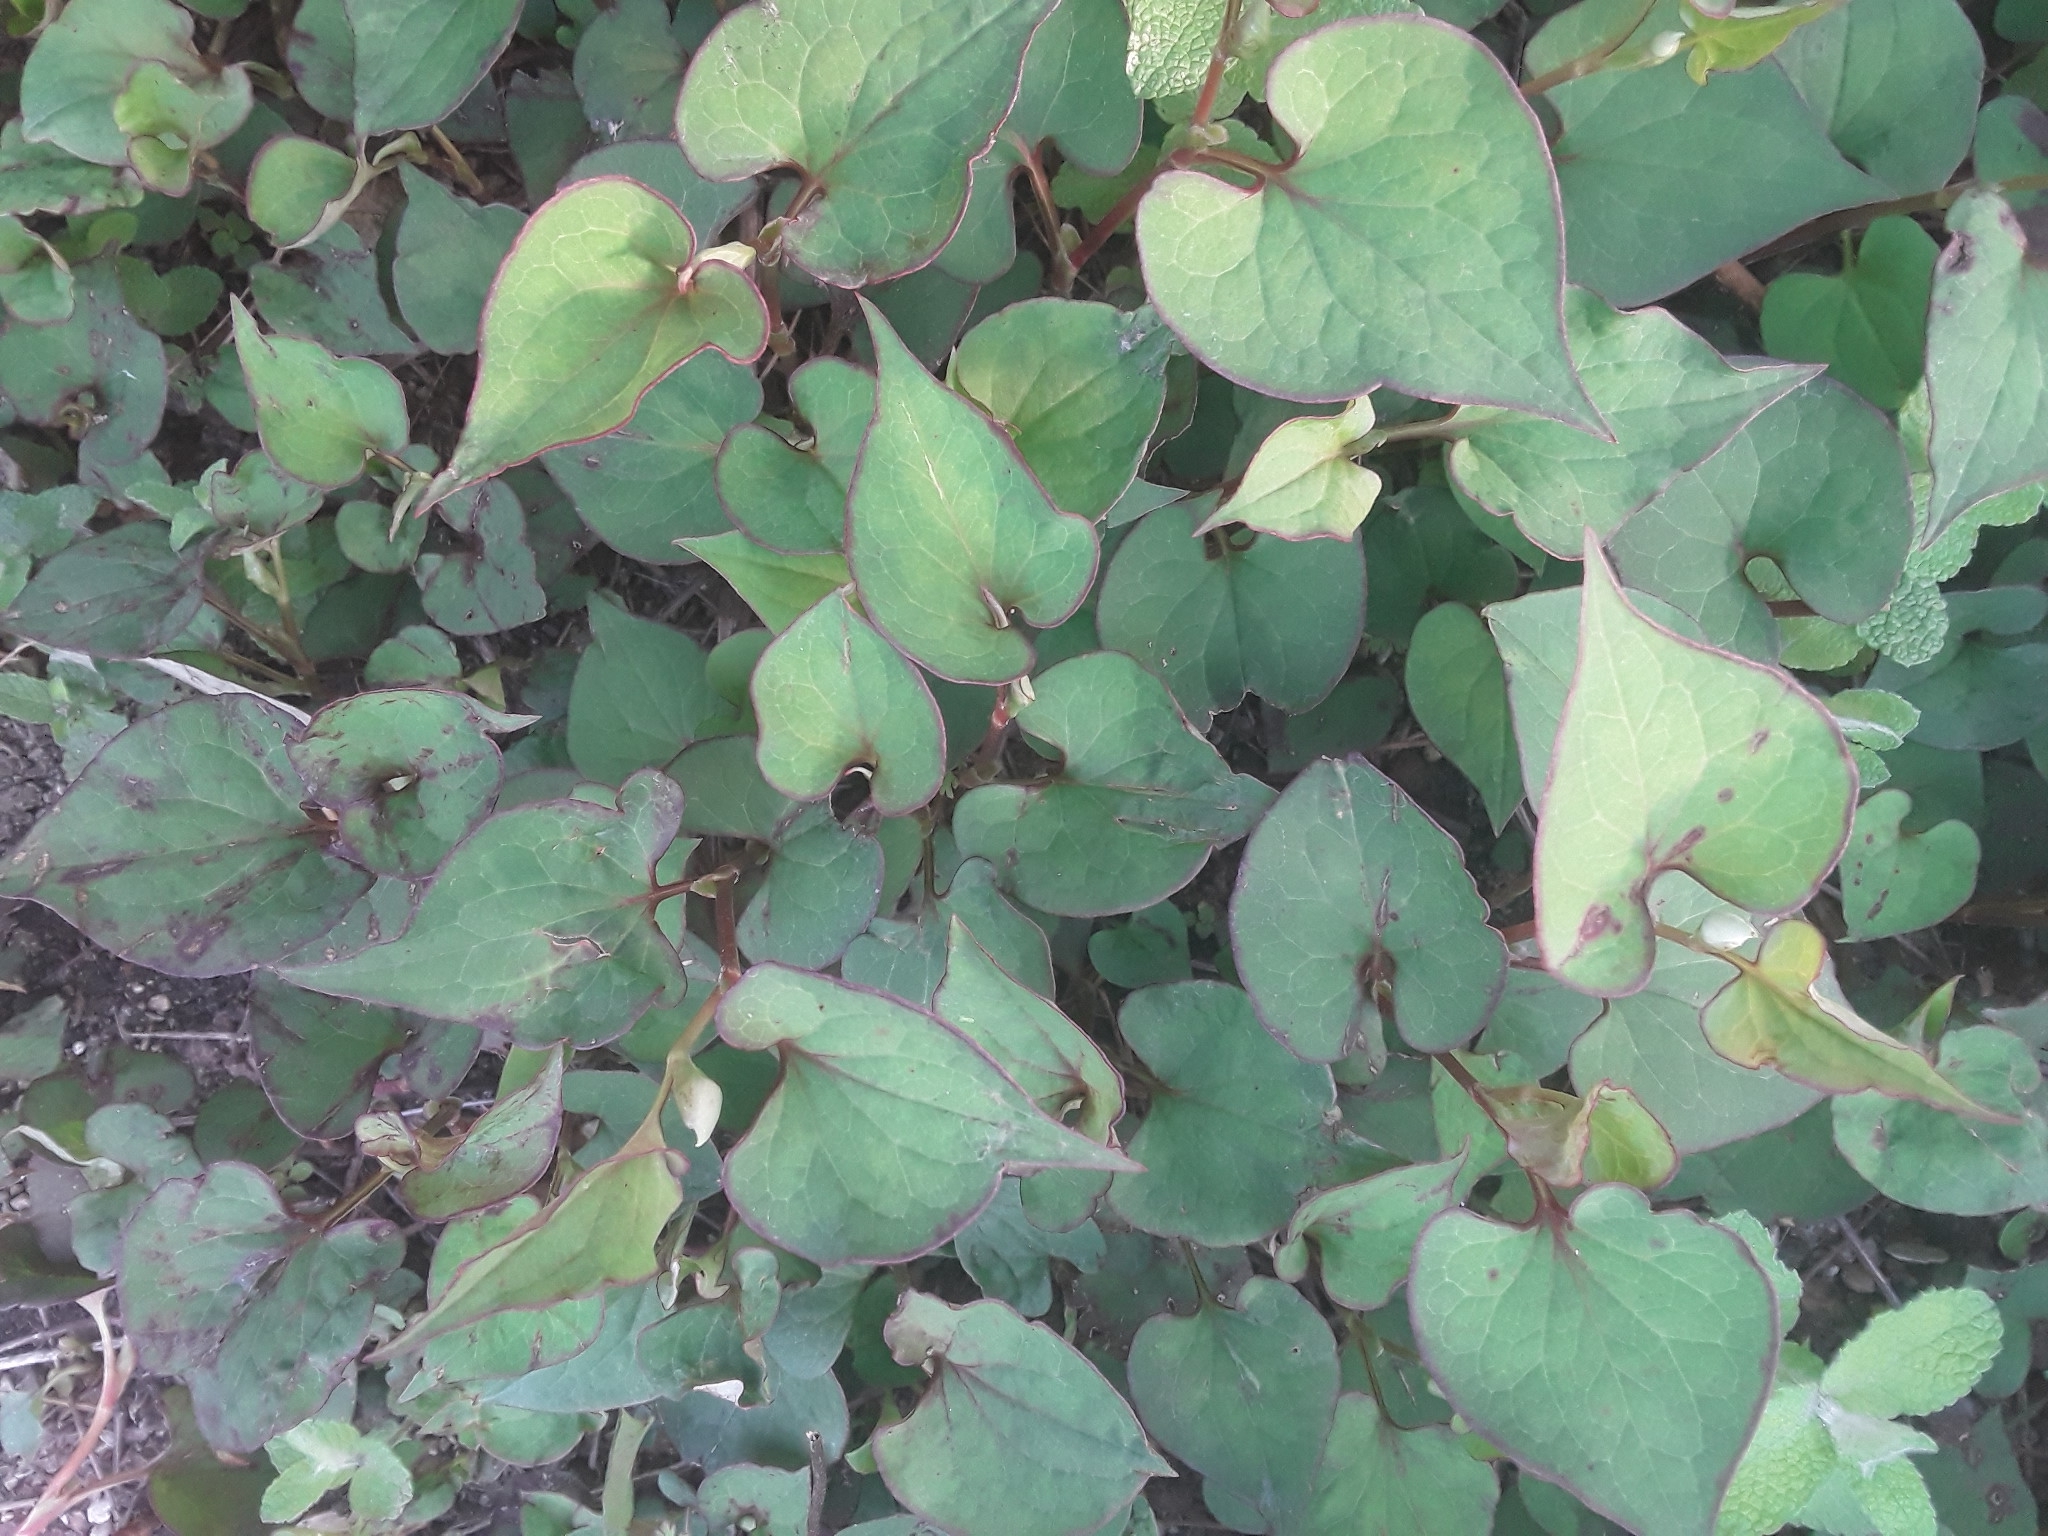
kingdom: Plantae
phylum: Tracheophyta
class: Magnoliopsida
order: Piperales
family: Saururaceae
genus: Houttuynia
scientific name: Houttuynia cordata
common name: Chameleon
